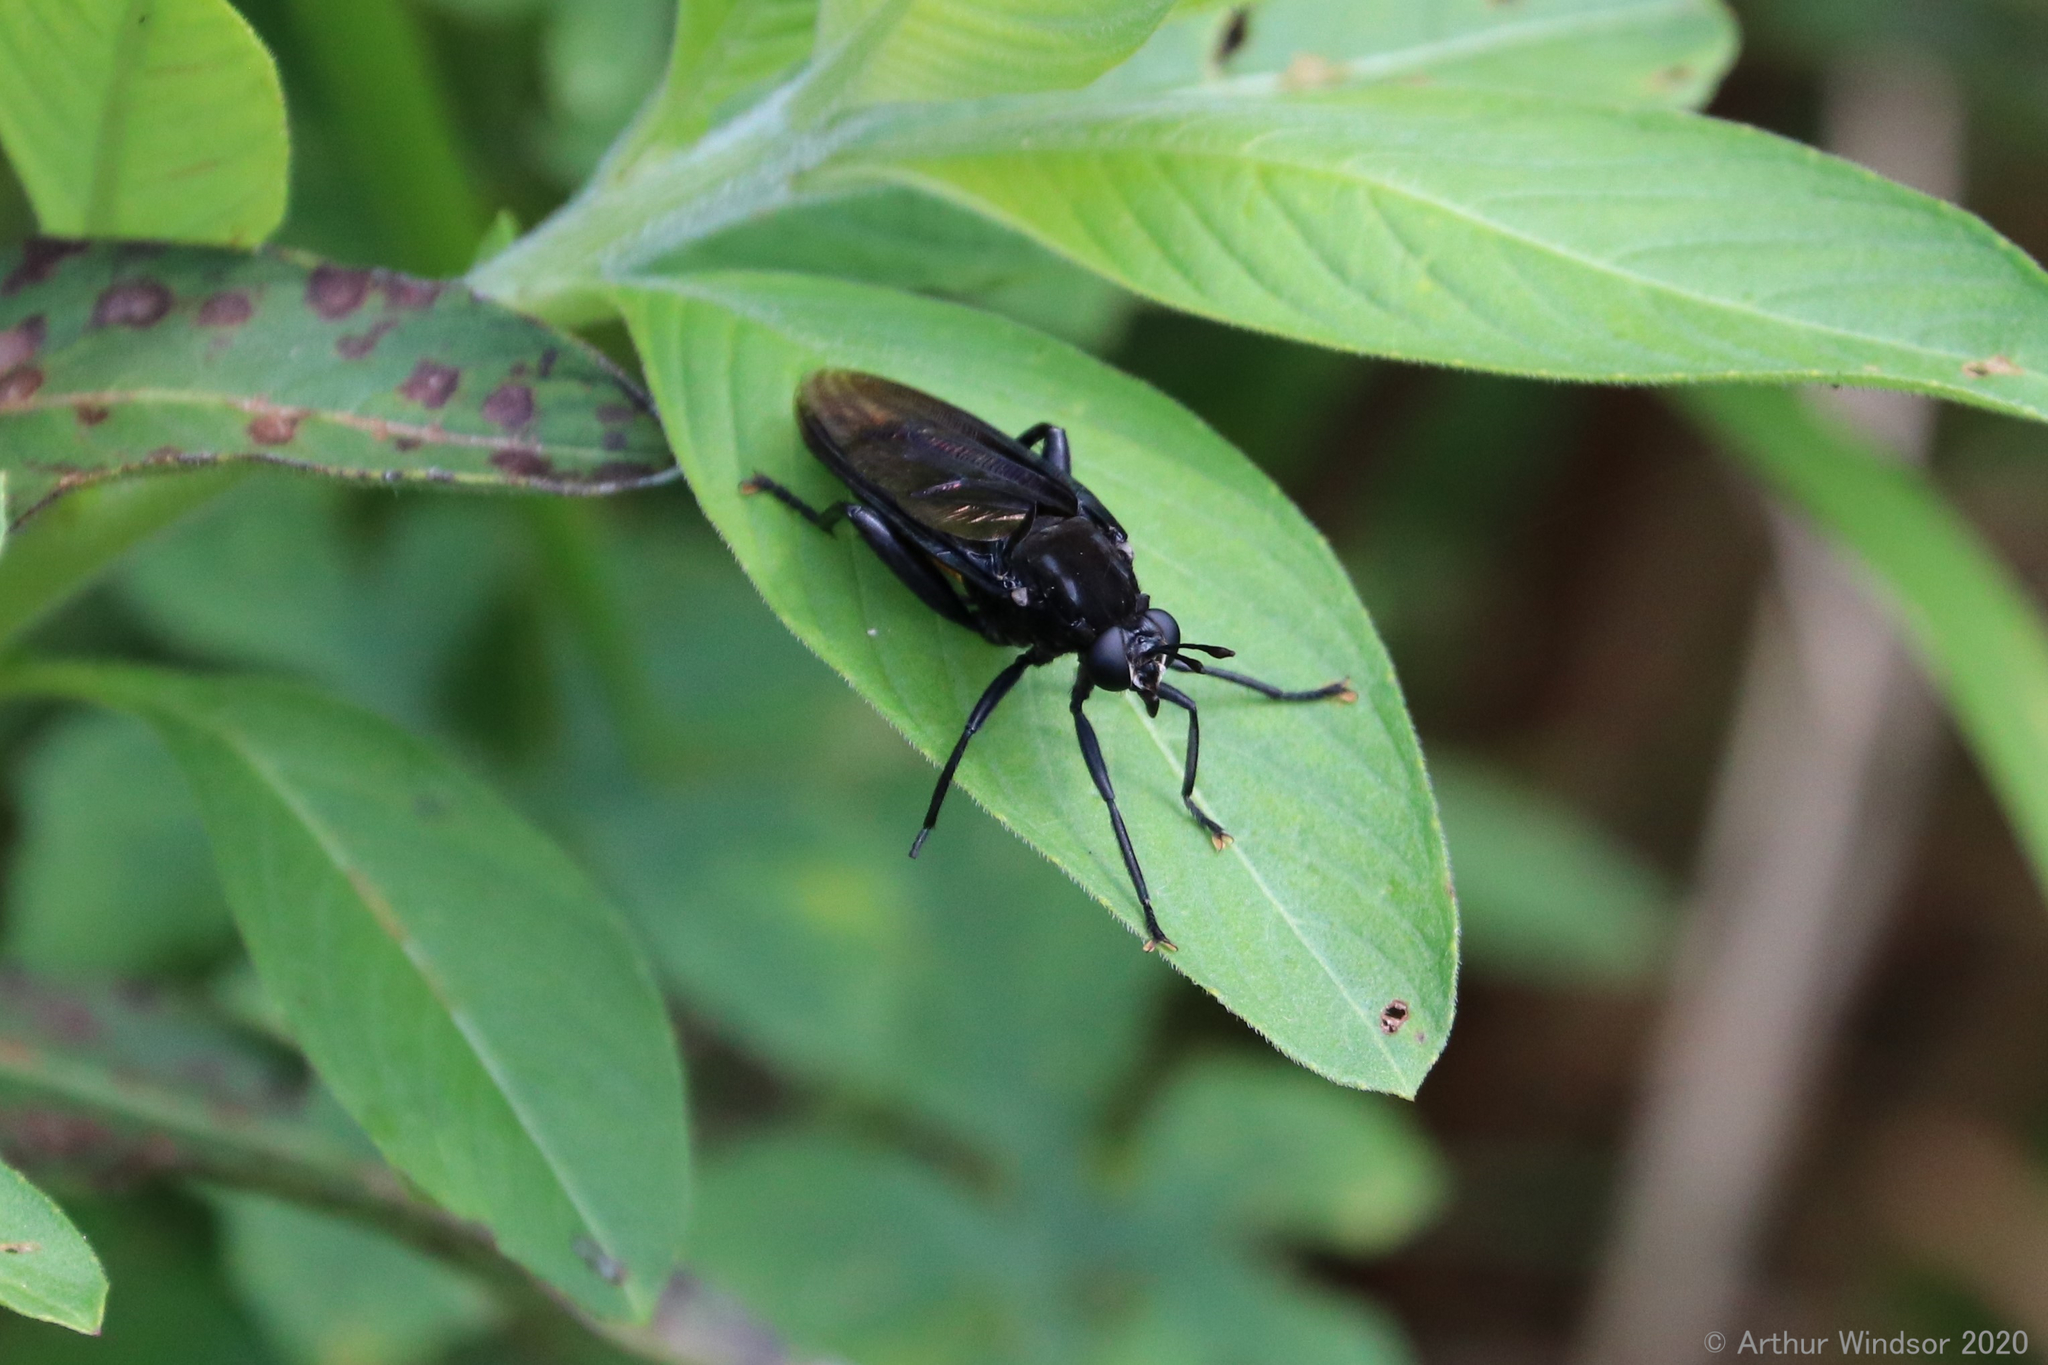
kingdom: Animalia
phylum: Arthropoda
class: Insecta
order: Diptera
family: Mydidae
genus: Mydas
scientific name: Mydas clavatus
